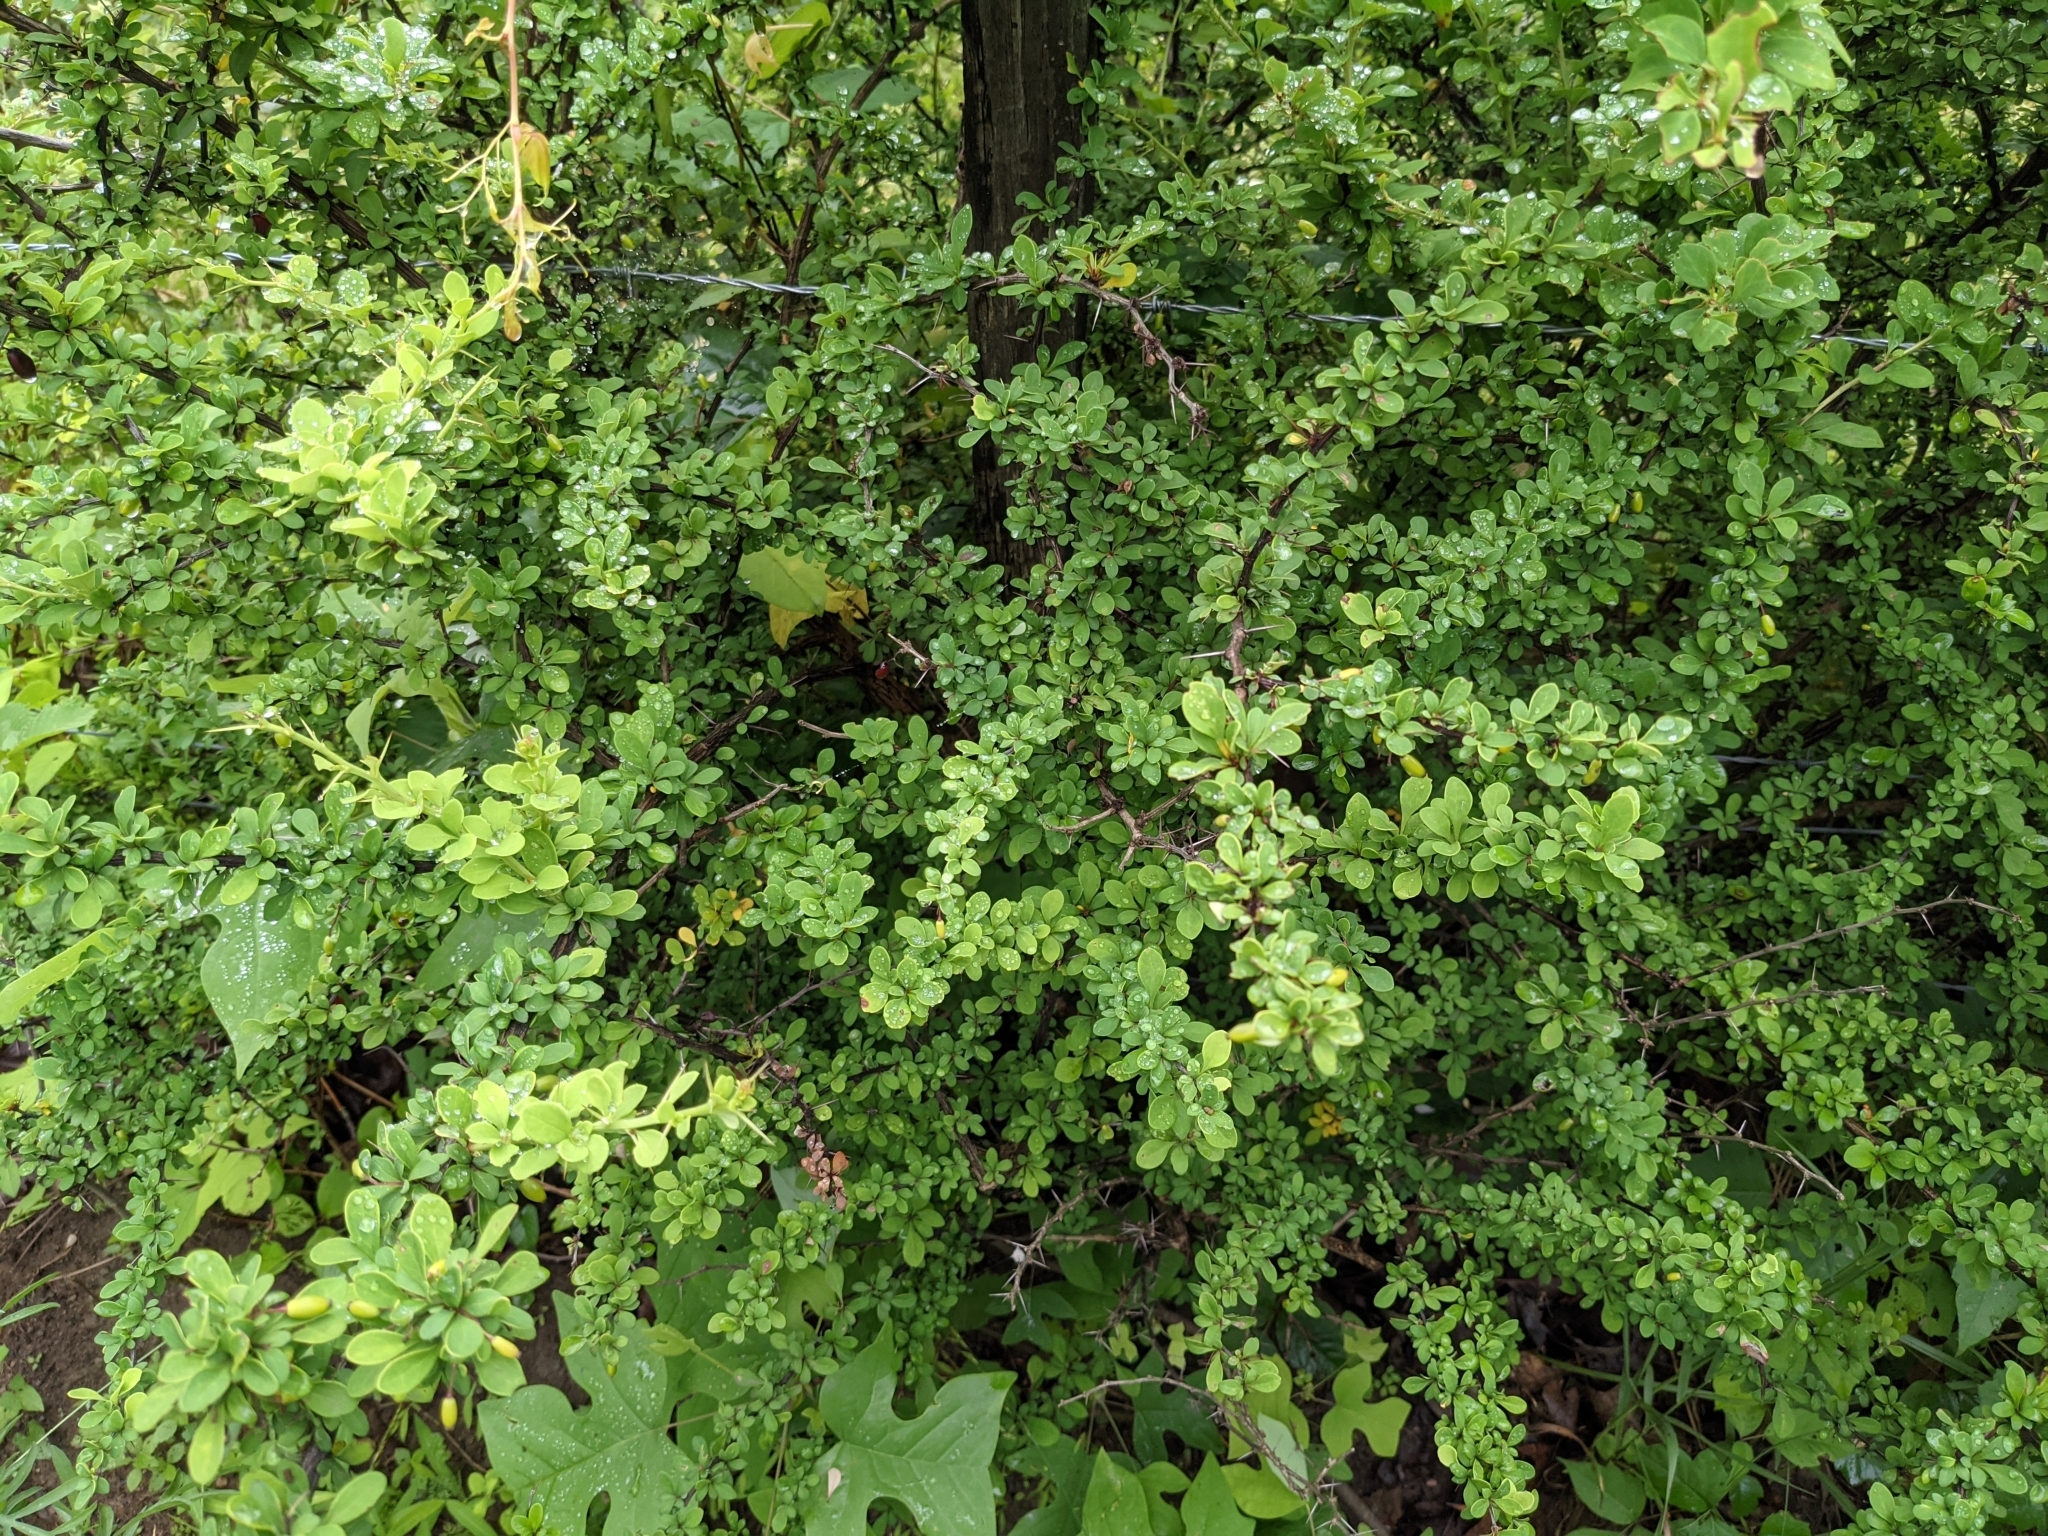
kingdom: Plantae
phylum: Tracheophyta
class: Magnoliopsida
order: Ranunculales
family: Berberidaceae
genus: Berberis
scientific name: Berberis thunbergii
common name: Japanese barberry
